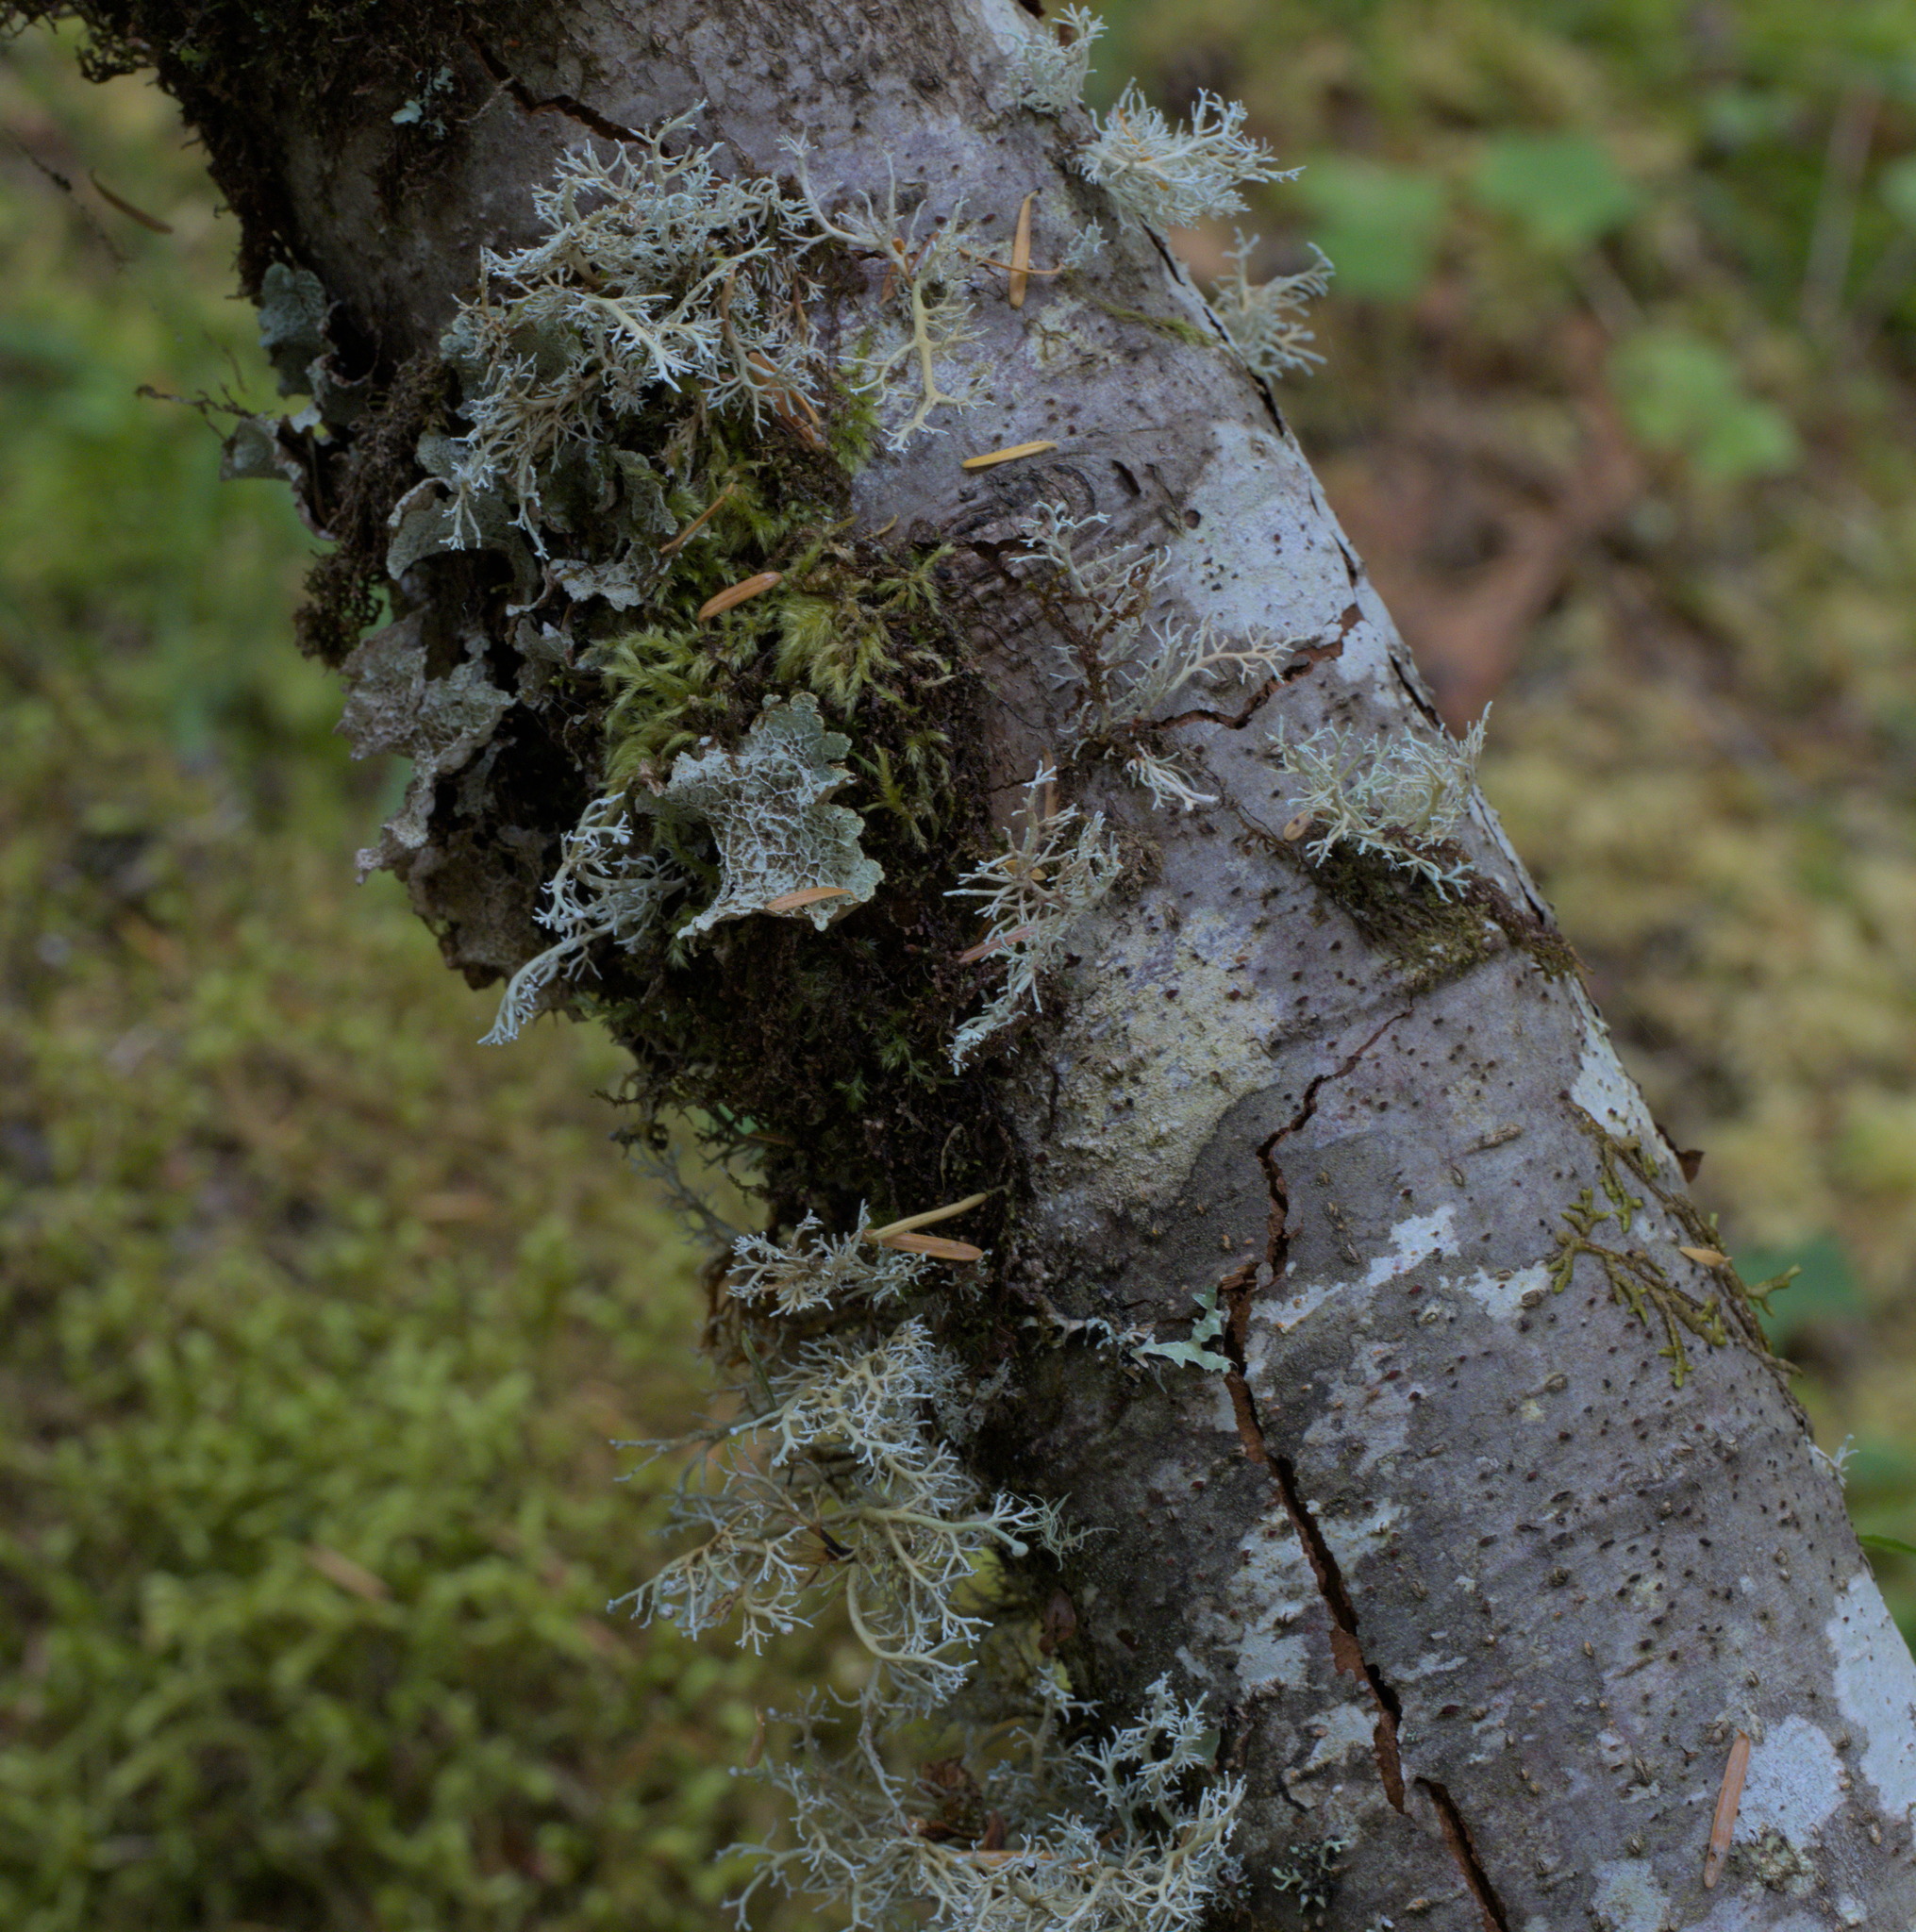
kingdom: Fungi
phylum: Ascomycota
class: Lecanoromycetes
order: Lecanorales
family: Parmeliaceae
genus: Platismatia
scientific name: Platismatia norvegica
